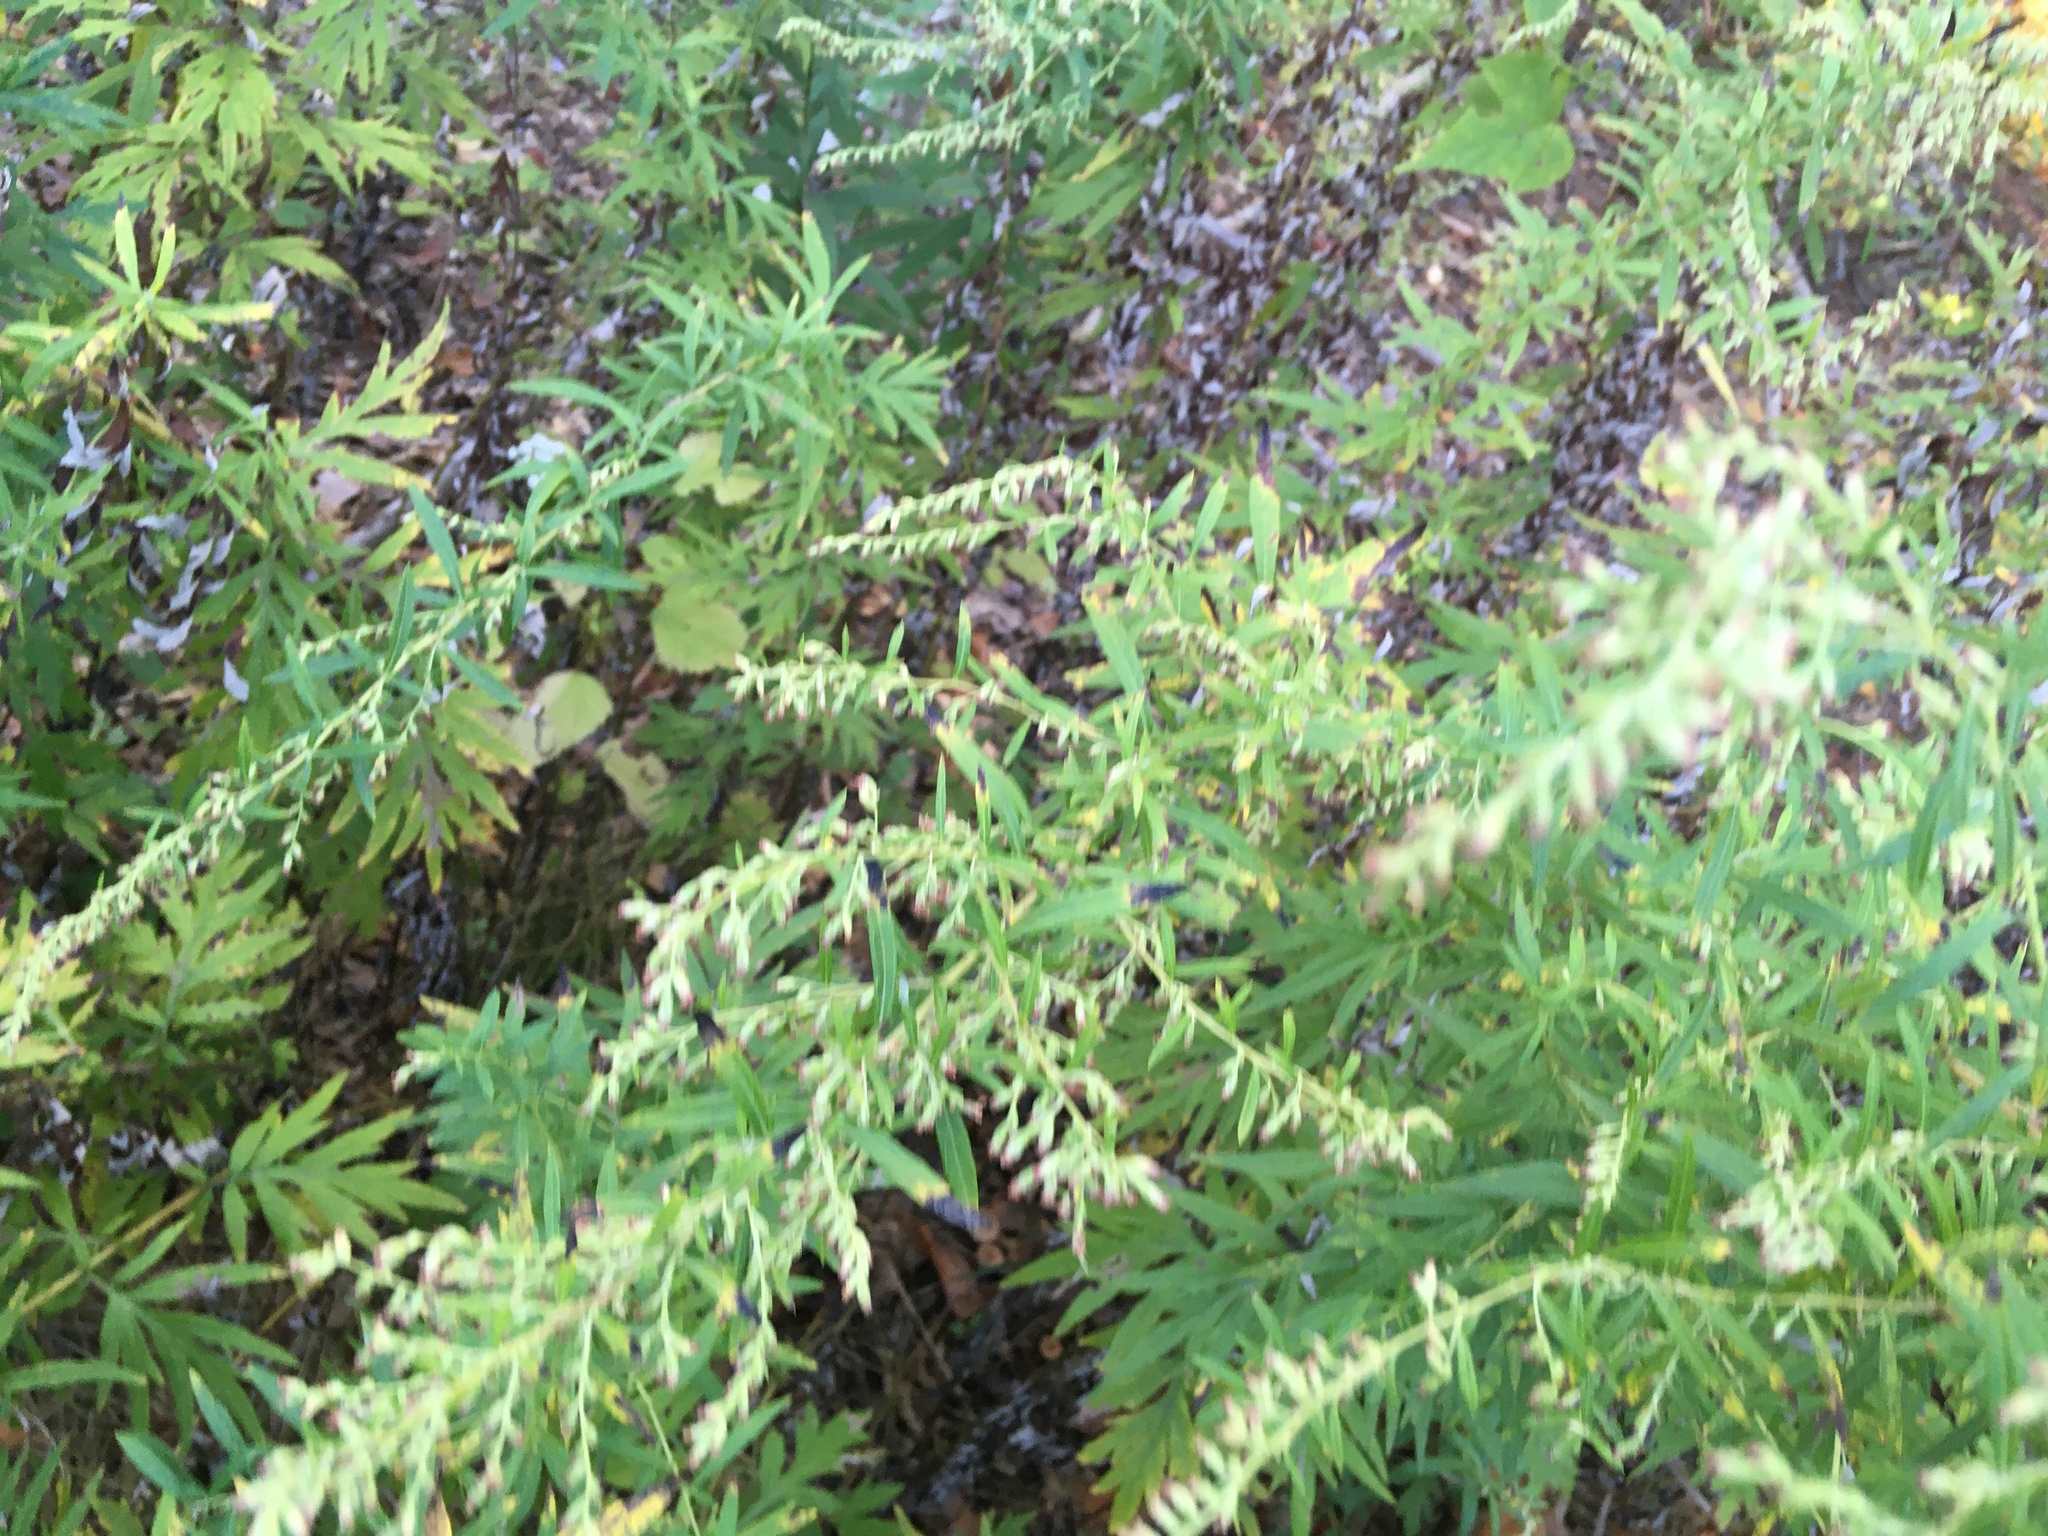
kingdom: Plantae
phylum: Tracheophyta
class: Magnoliopsida
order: Asterales
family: Asteraceae
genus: Artemisia
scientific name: Artemisia vulgaris
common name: Mugwort
